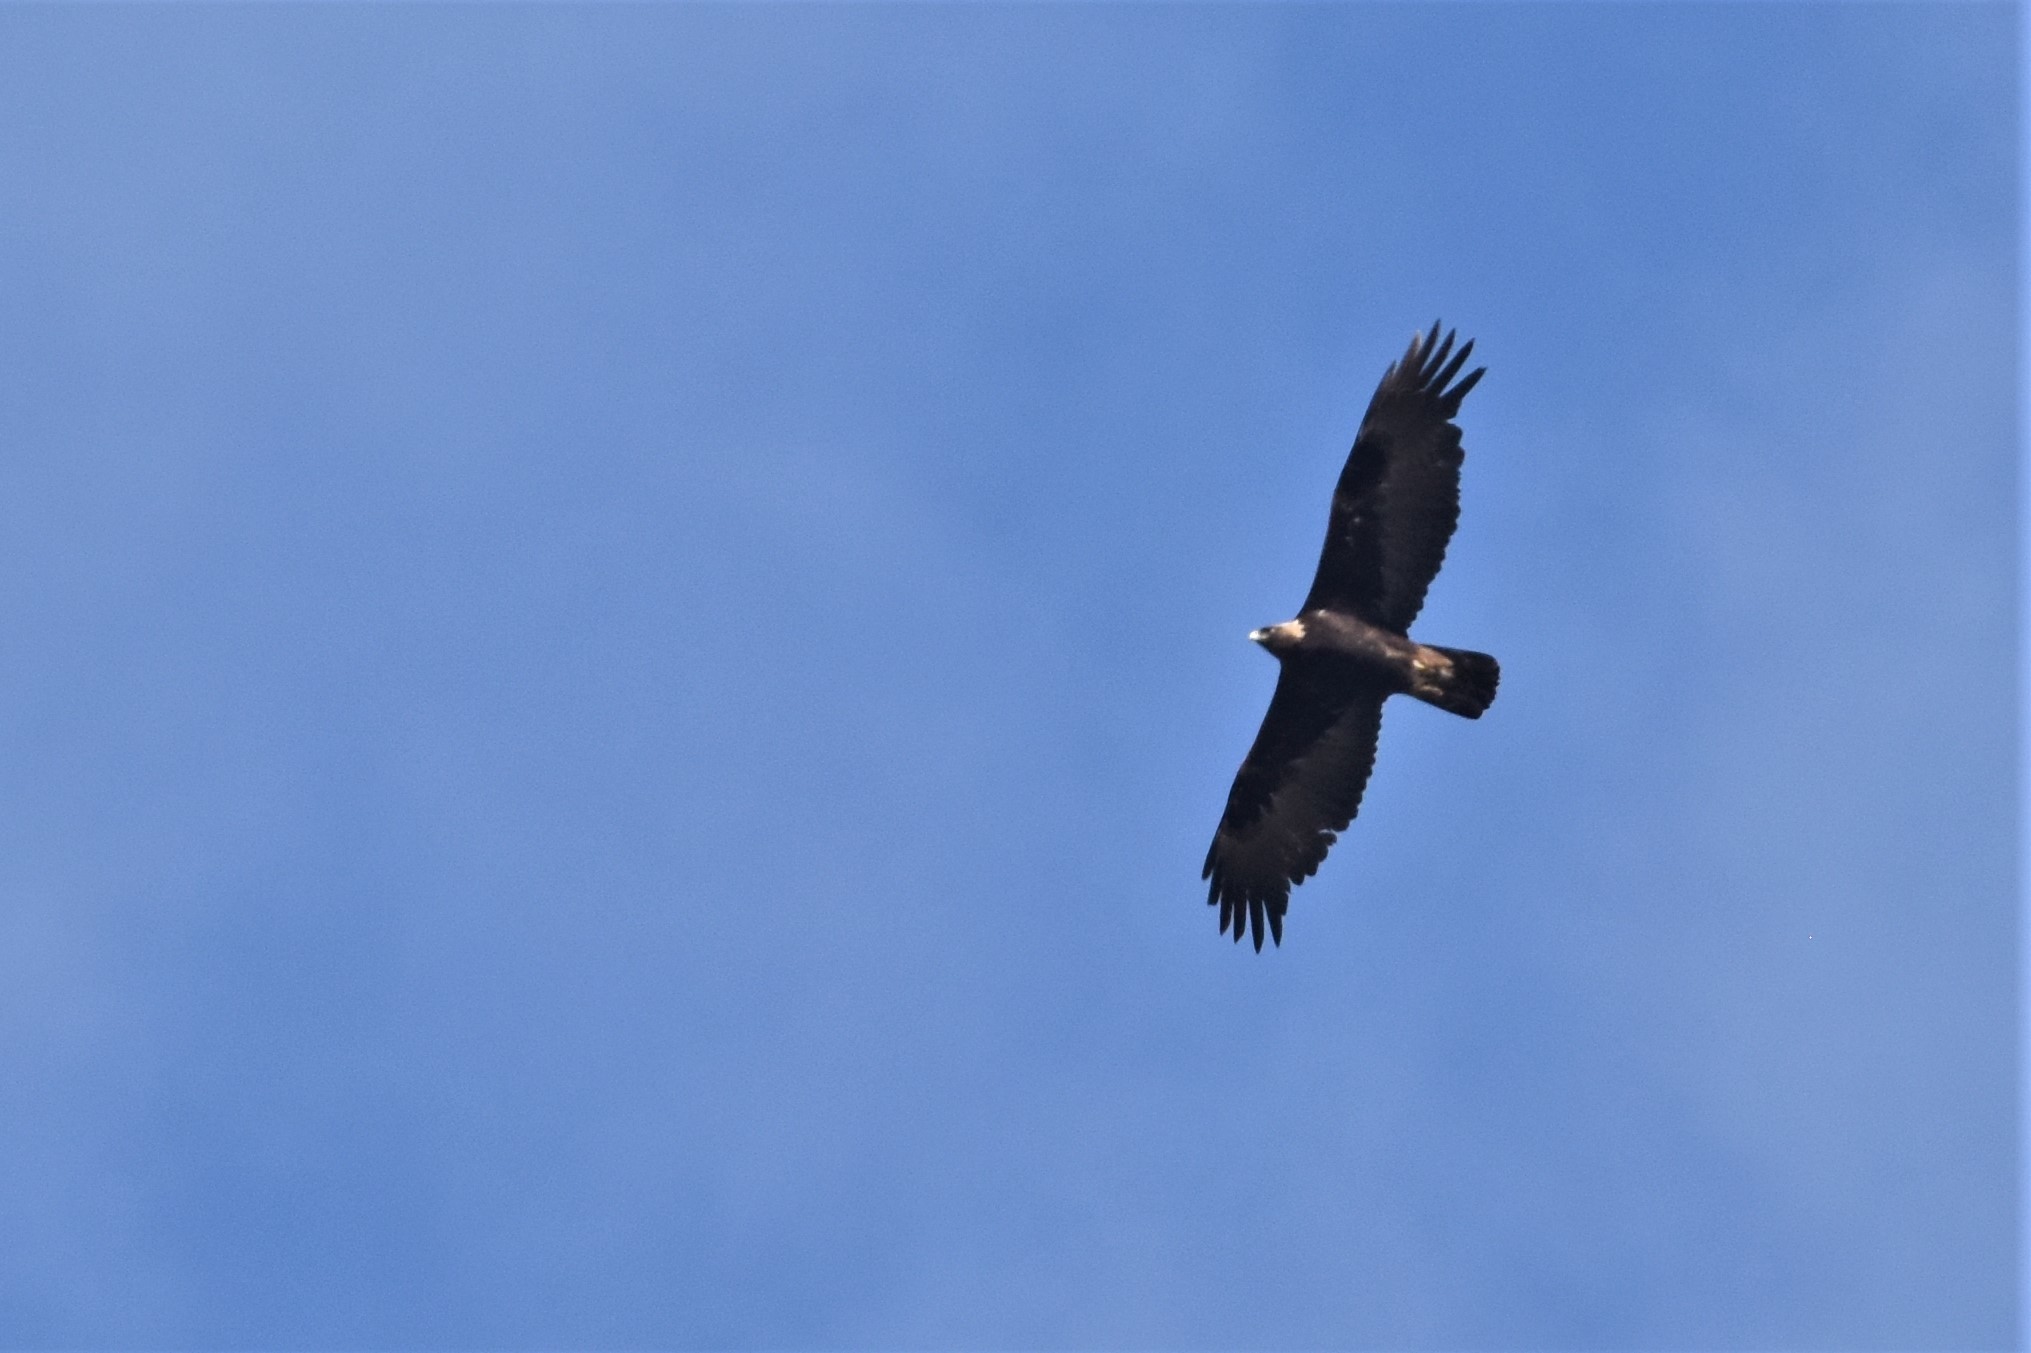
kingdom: Animalia
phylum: Chordata
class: Aves
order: Accipitriformes
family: Accipitridae
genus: Aquila
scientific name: Aquila chrysaetos
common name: Golden eagle
